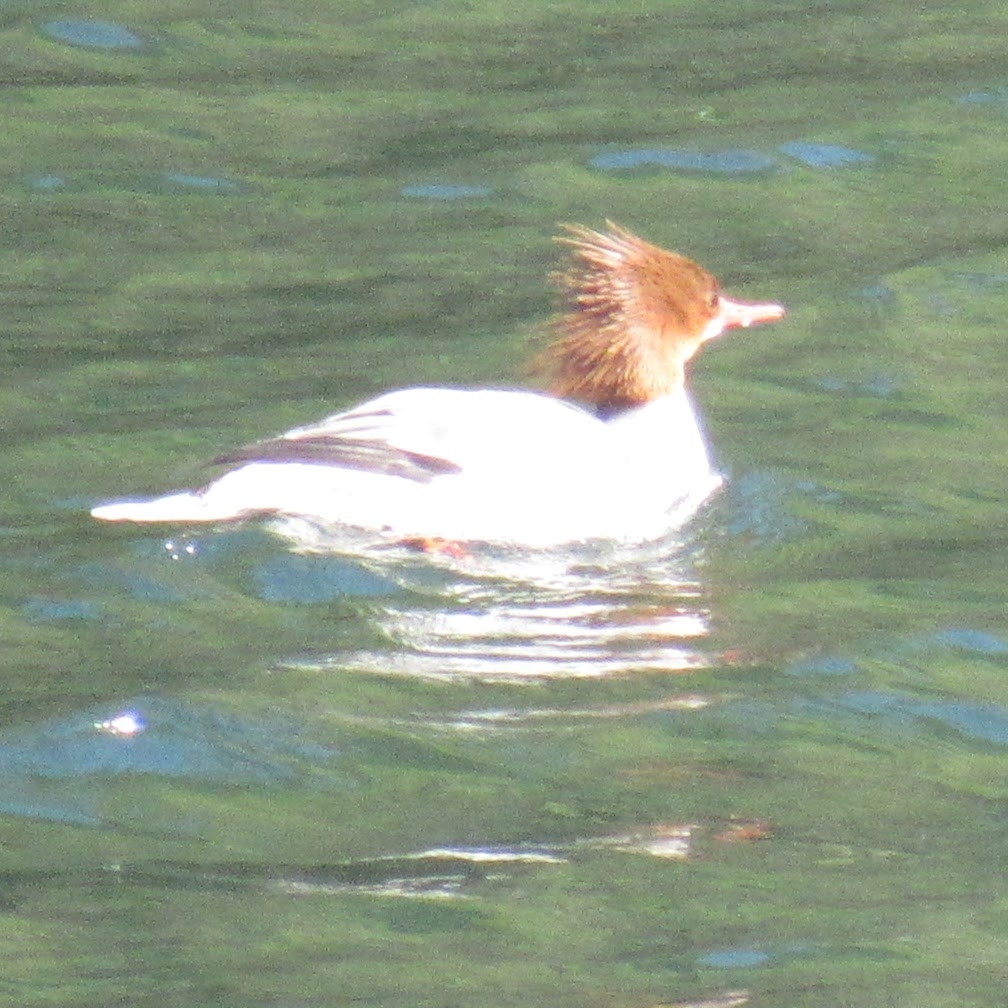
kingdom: Animalia
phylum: Chordata
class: Aves
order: Anseriformes
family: Anatidae
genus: Mergus
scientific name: Mergus merganser
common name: Common merganser
